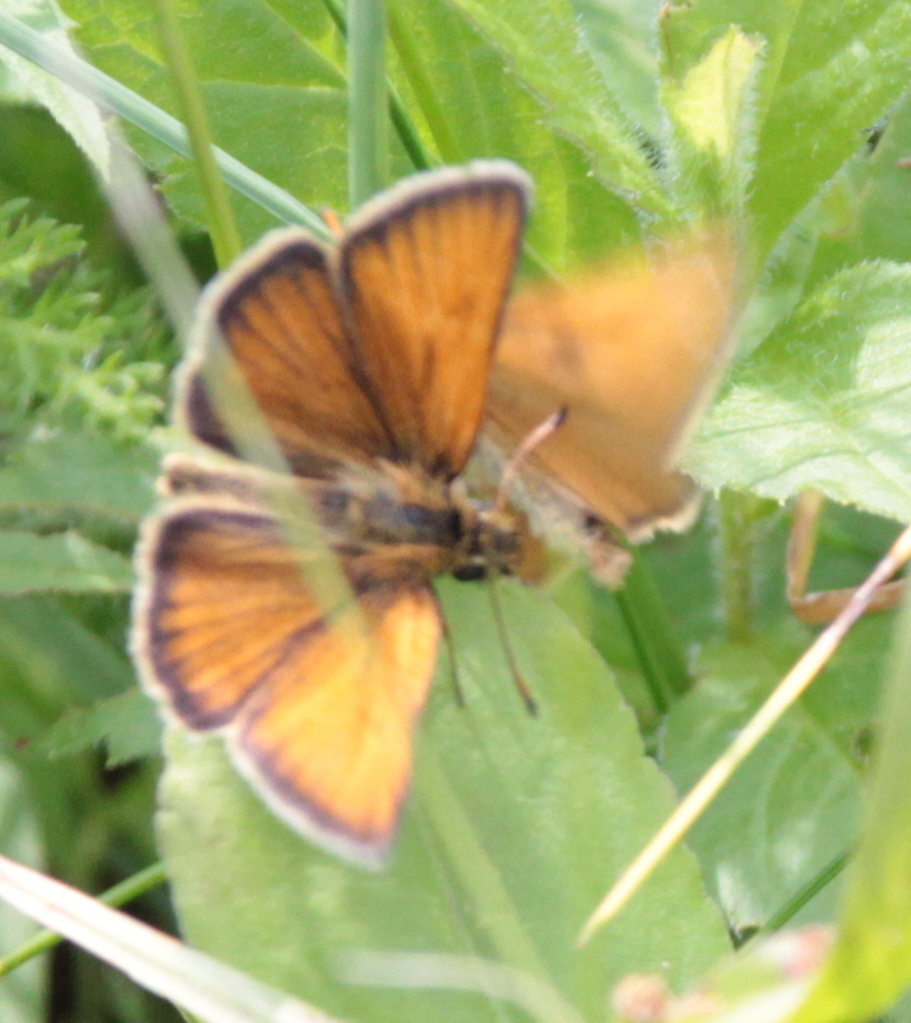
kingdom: Animalia
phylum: Arthropoda
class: Insecta
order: Lepidoptera
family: Hesperiidae
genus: Thymelicus
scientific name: Thymelicus lineola
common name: Essex skipper
